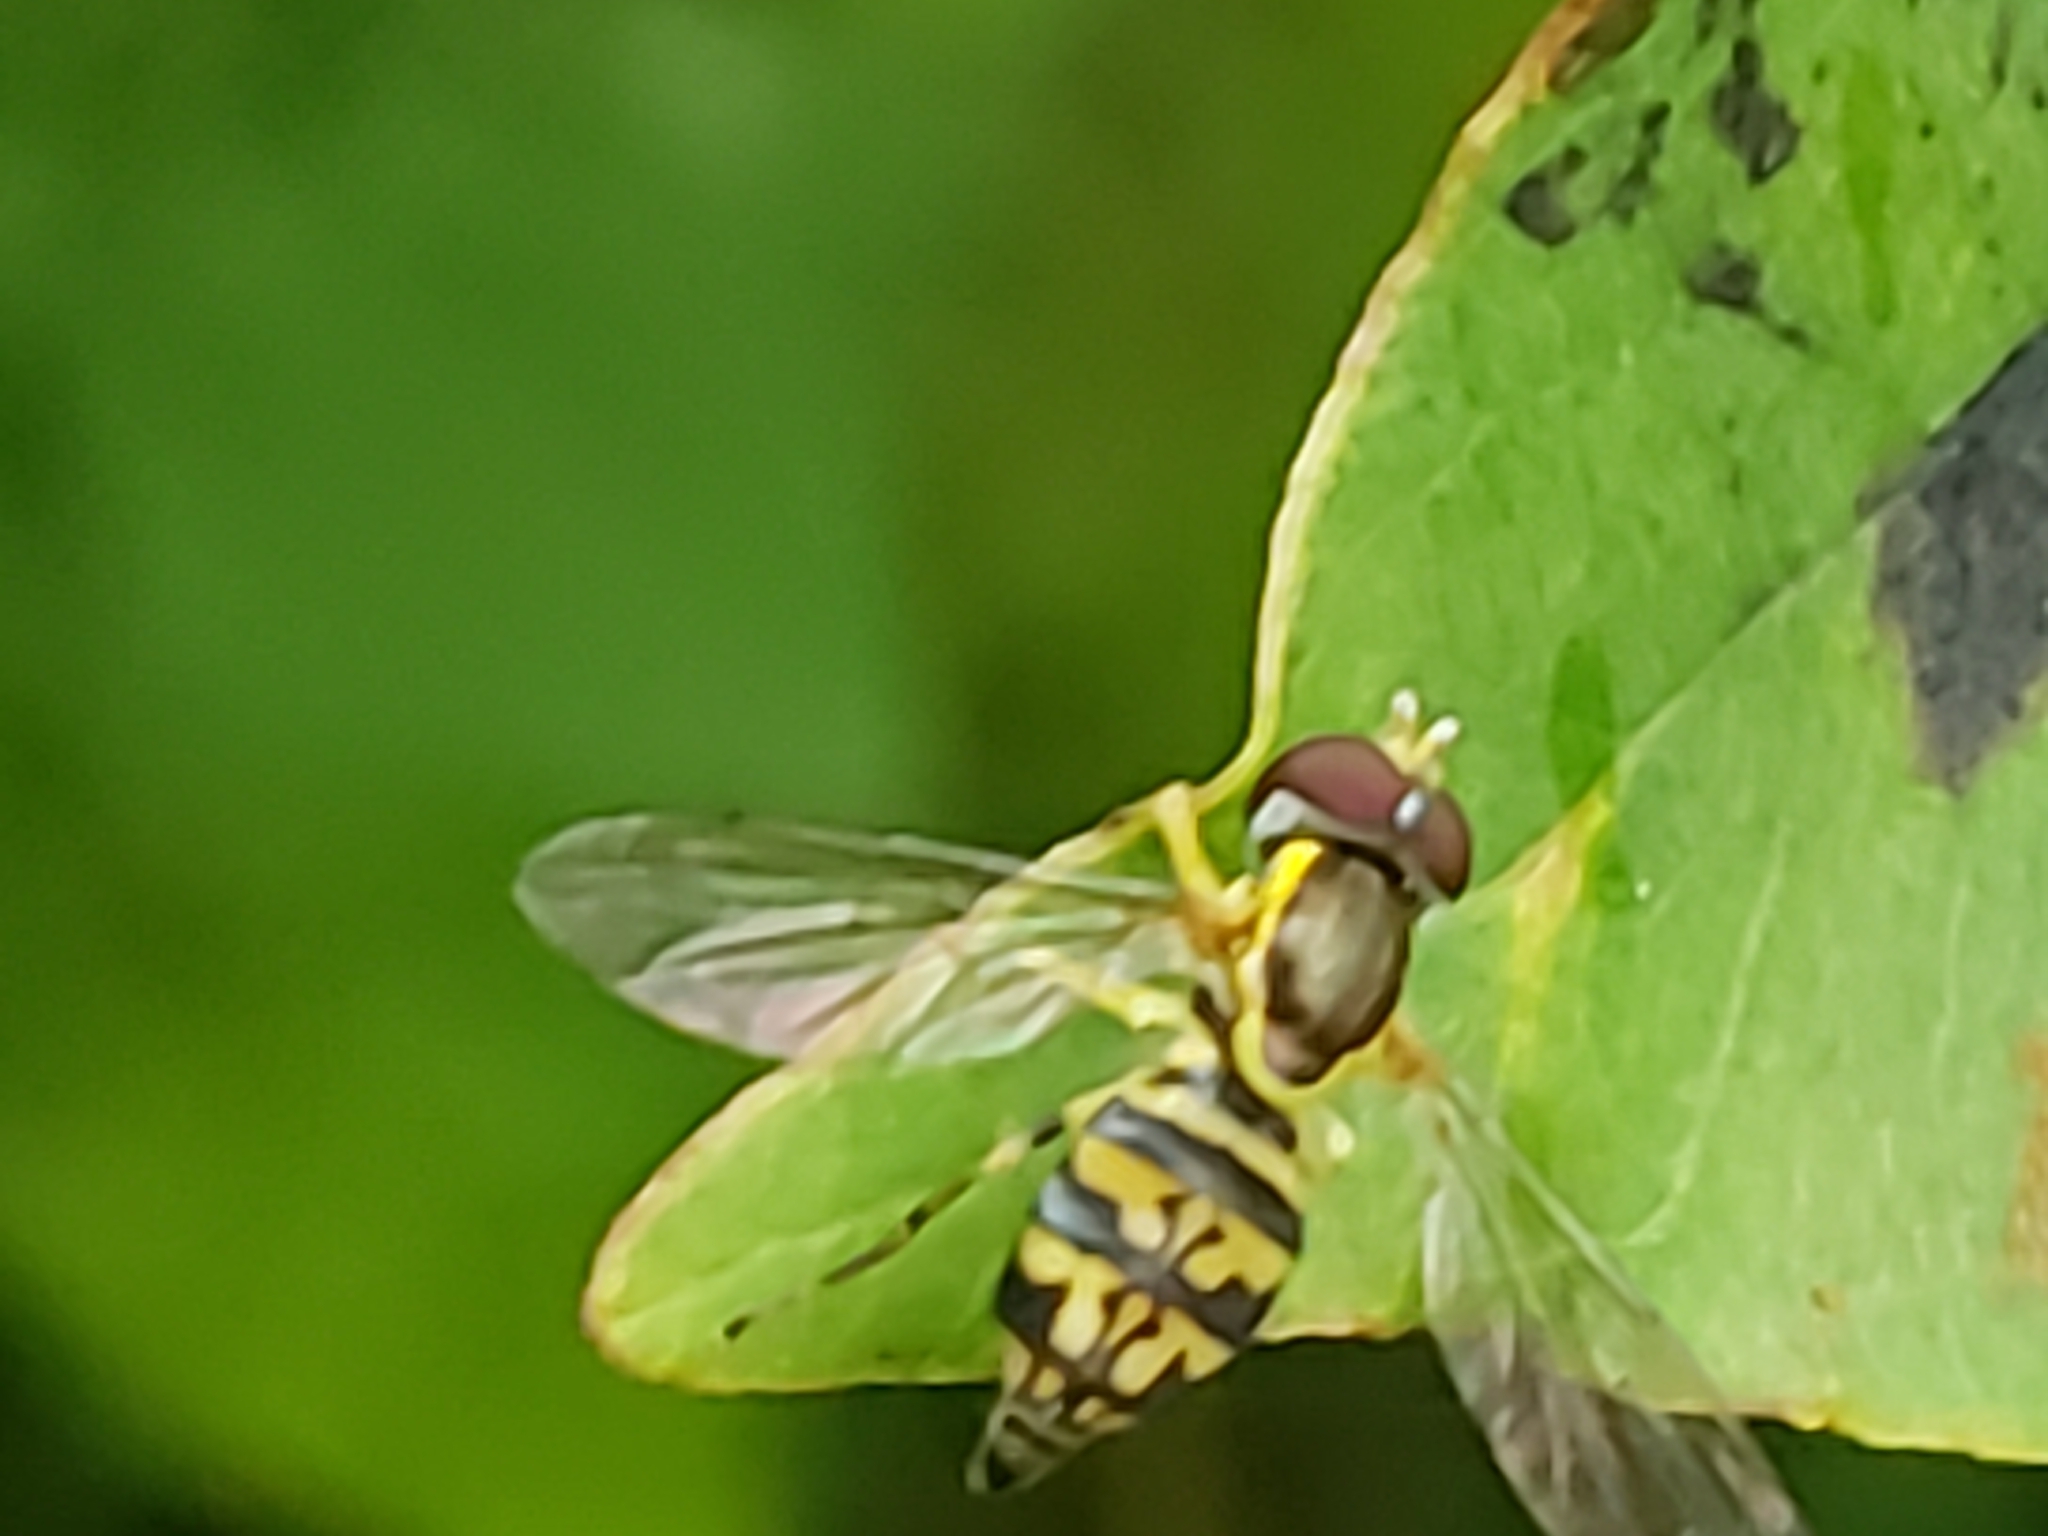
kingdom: Animalia
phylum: Arthropoda
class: Insecta
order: Diptera
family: Syrphidae
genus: Toxomerus
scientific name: Toxomerus geminatus
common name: Eastern calligrapher
